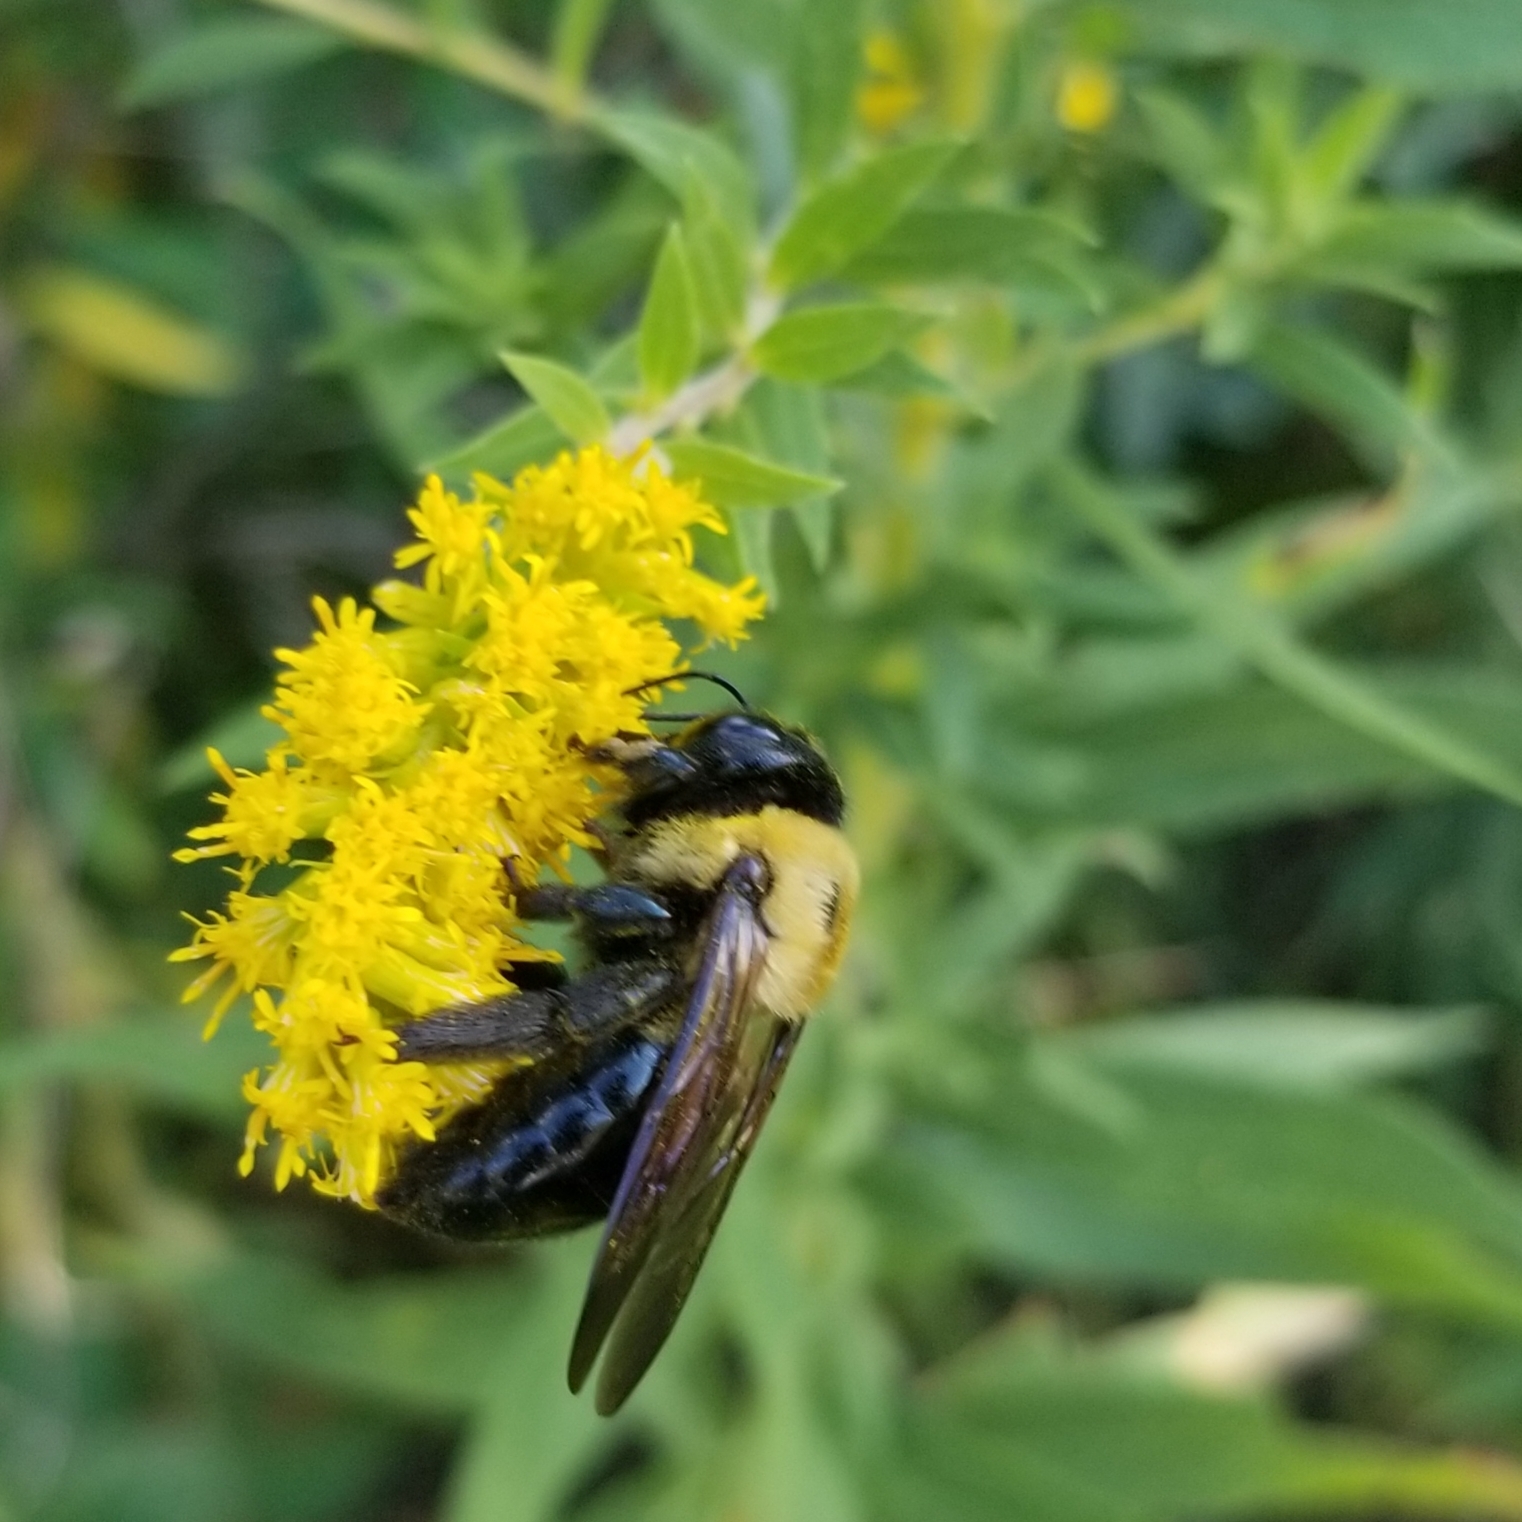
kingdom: Animalia
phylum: Arthropoda
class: Insecta
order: Hymenoptera
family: Apidae
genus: Xylocopa
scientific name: Xylocopa virginica
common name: Carpenter bee
